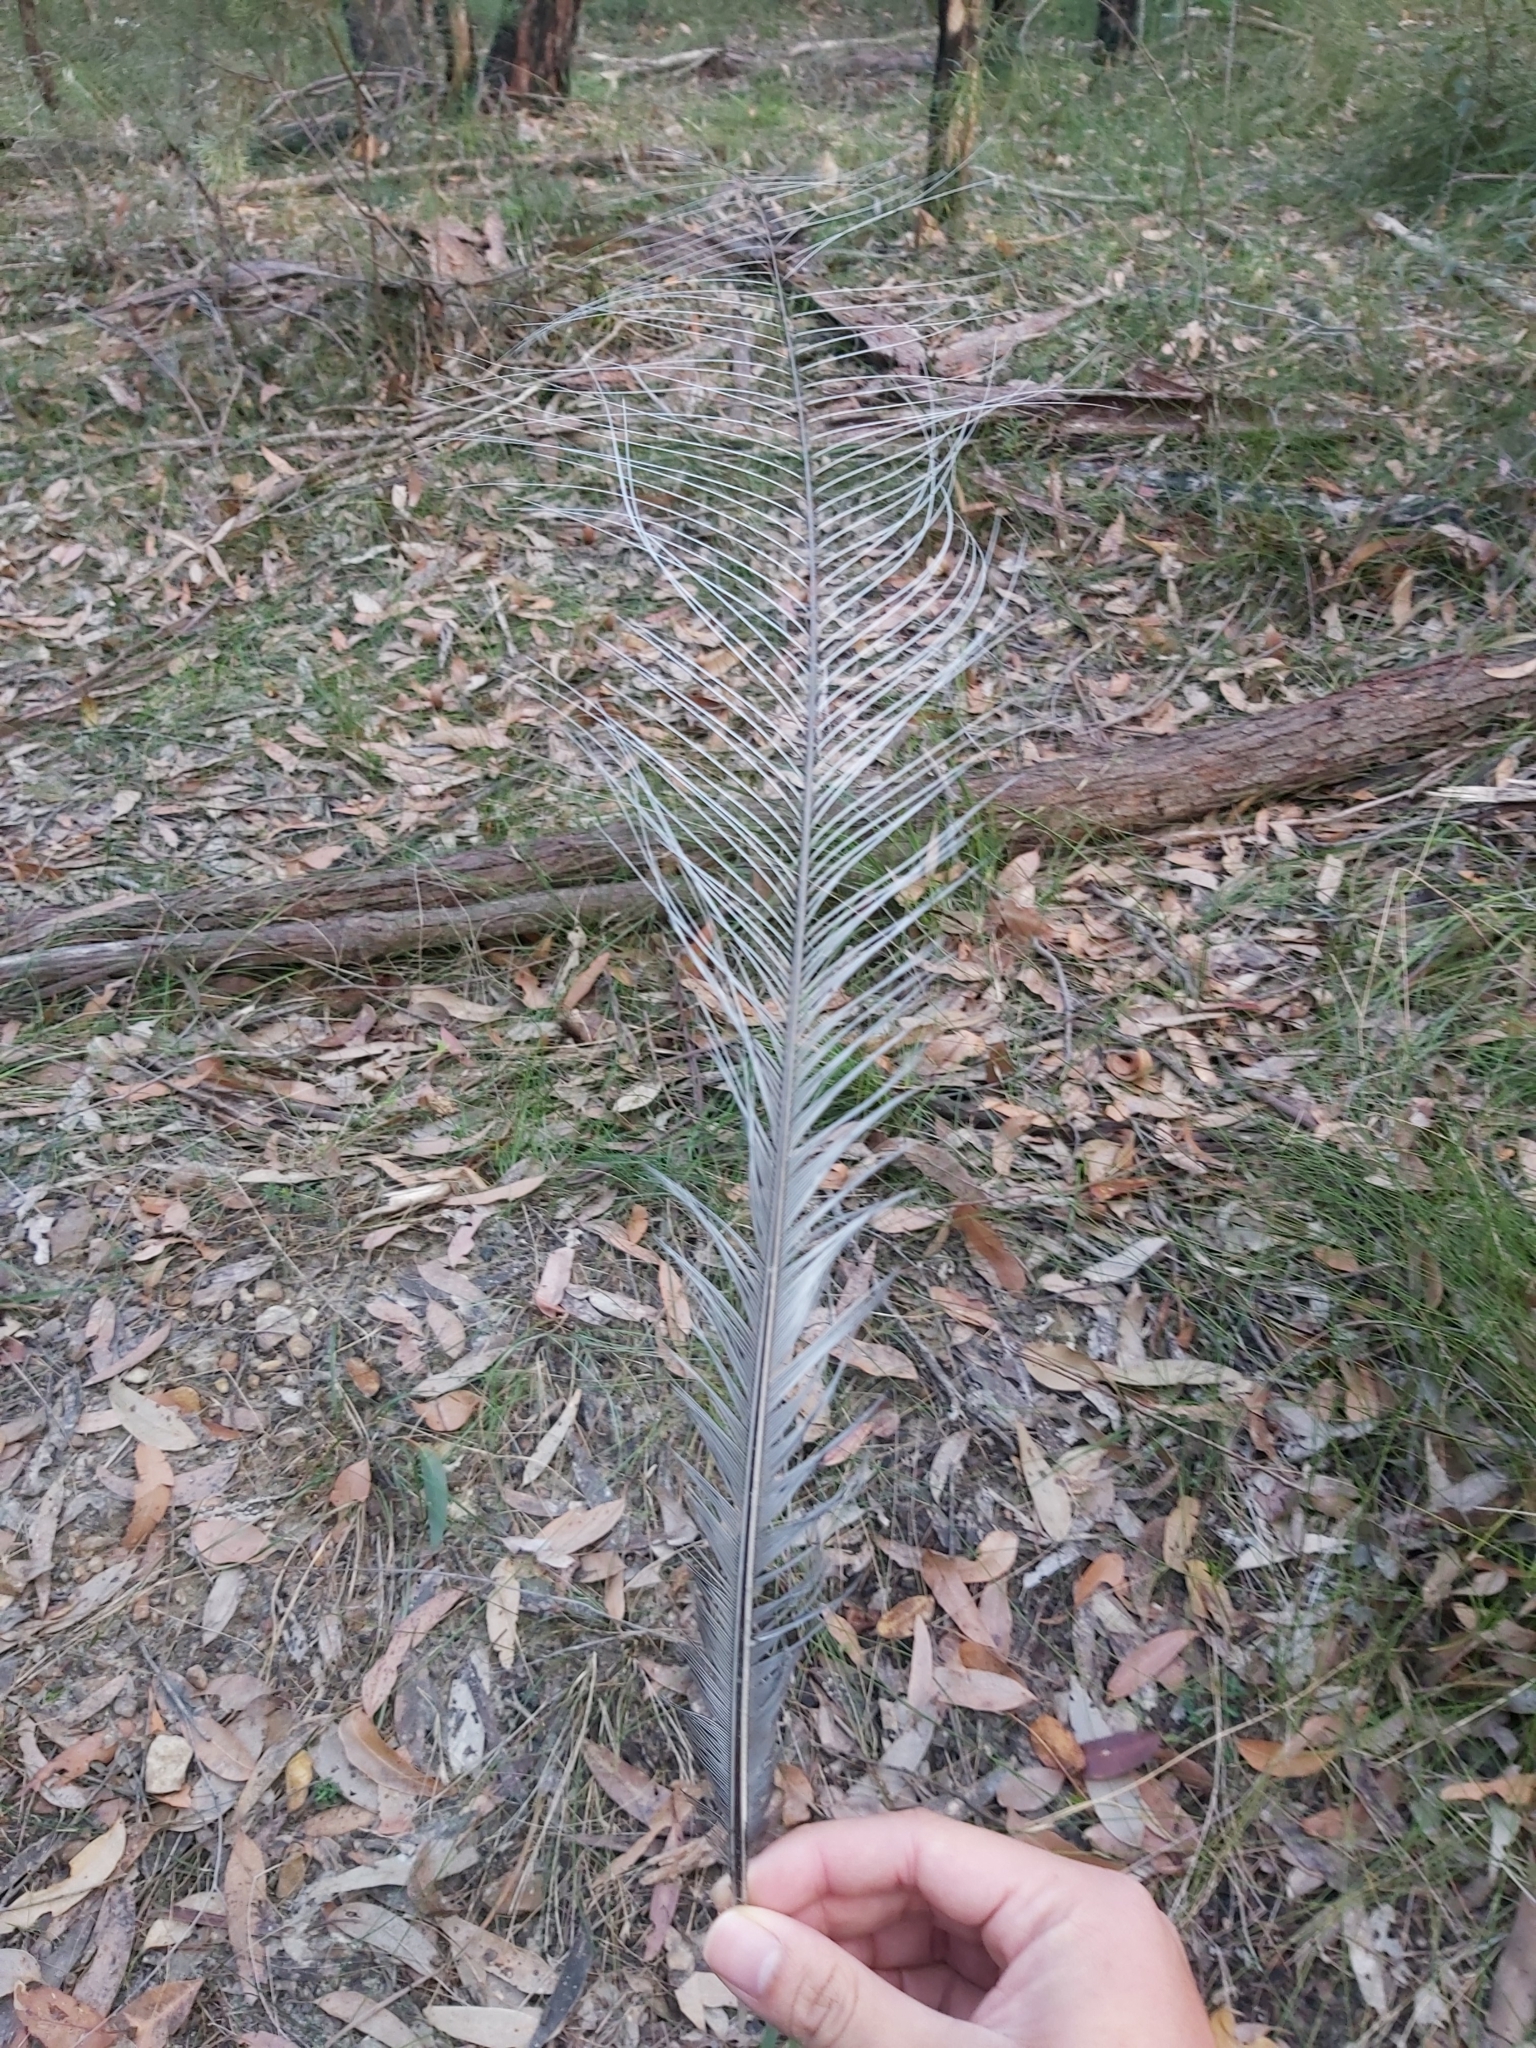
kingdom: Animalia
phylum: Chordata
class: Aves
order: Passeriformes
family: Menuridae
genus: Menura
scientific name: Menura novaehollandiae
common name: Superb lyrebird
